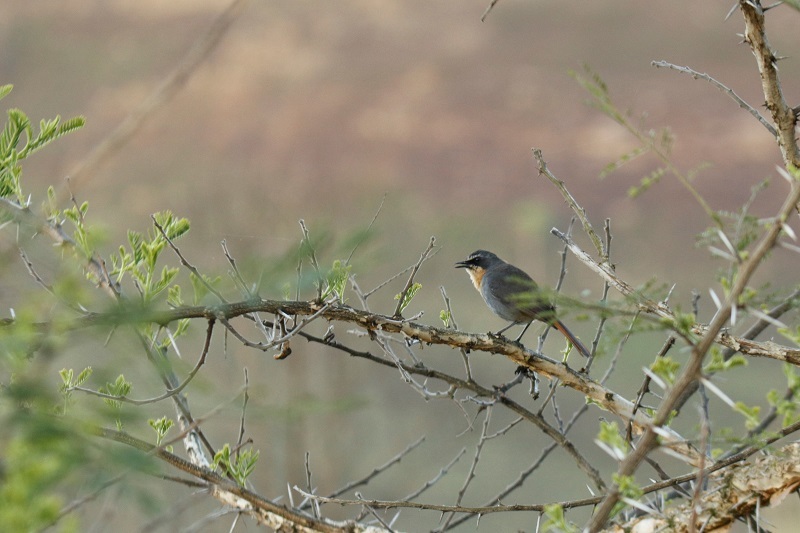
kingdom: Animalia
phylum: Chordata
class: Aves
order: Passeriformes
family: Muscicapidae
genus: Cossypha
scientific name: Cossypha caffra
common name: Cape robin-chat
